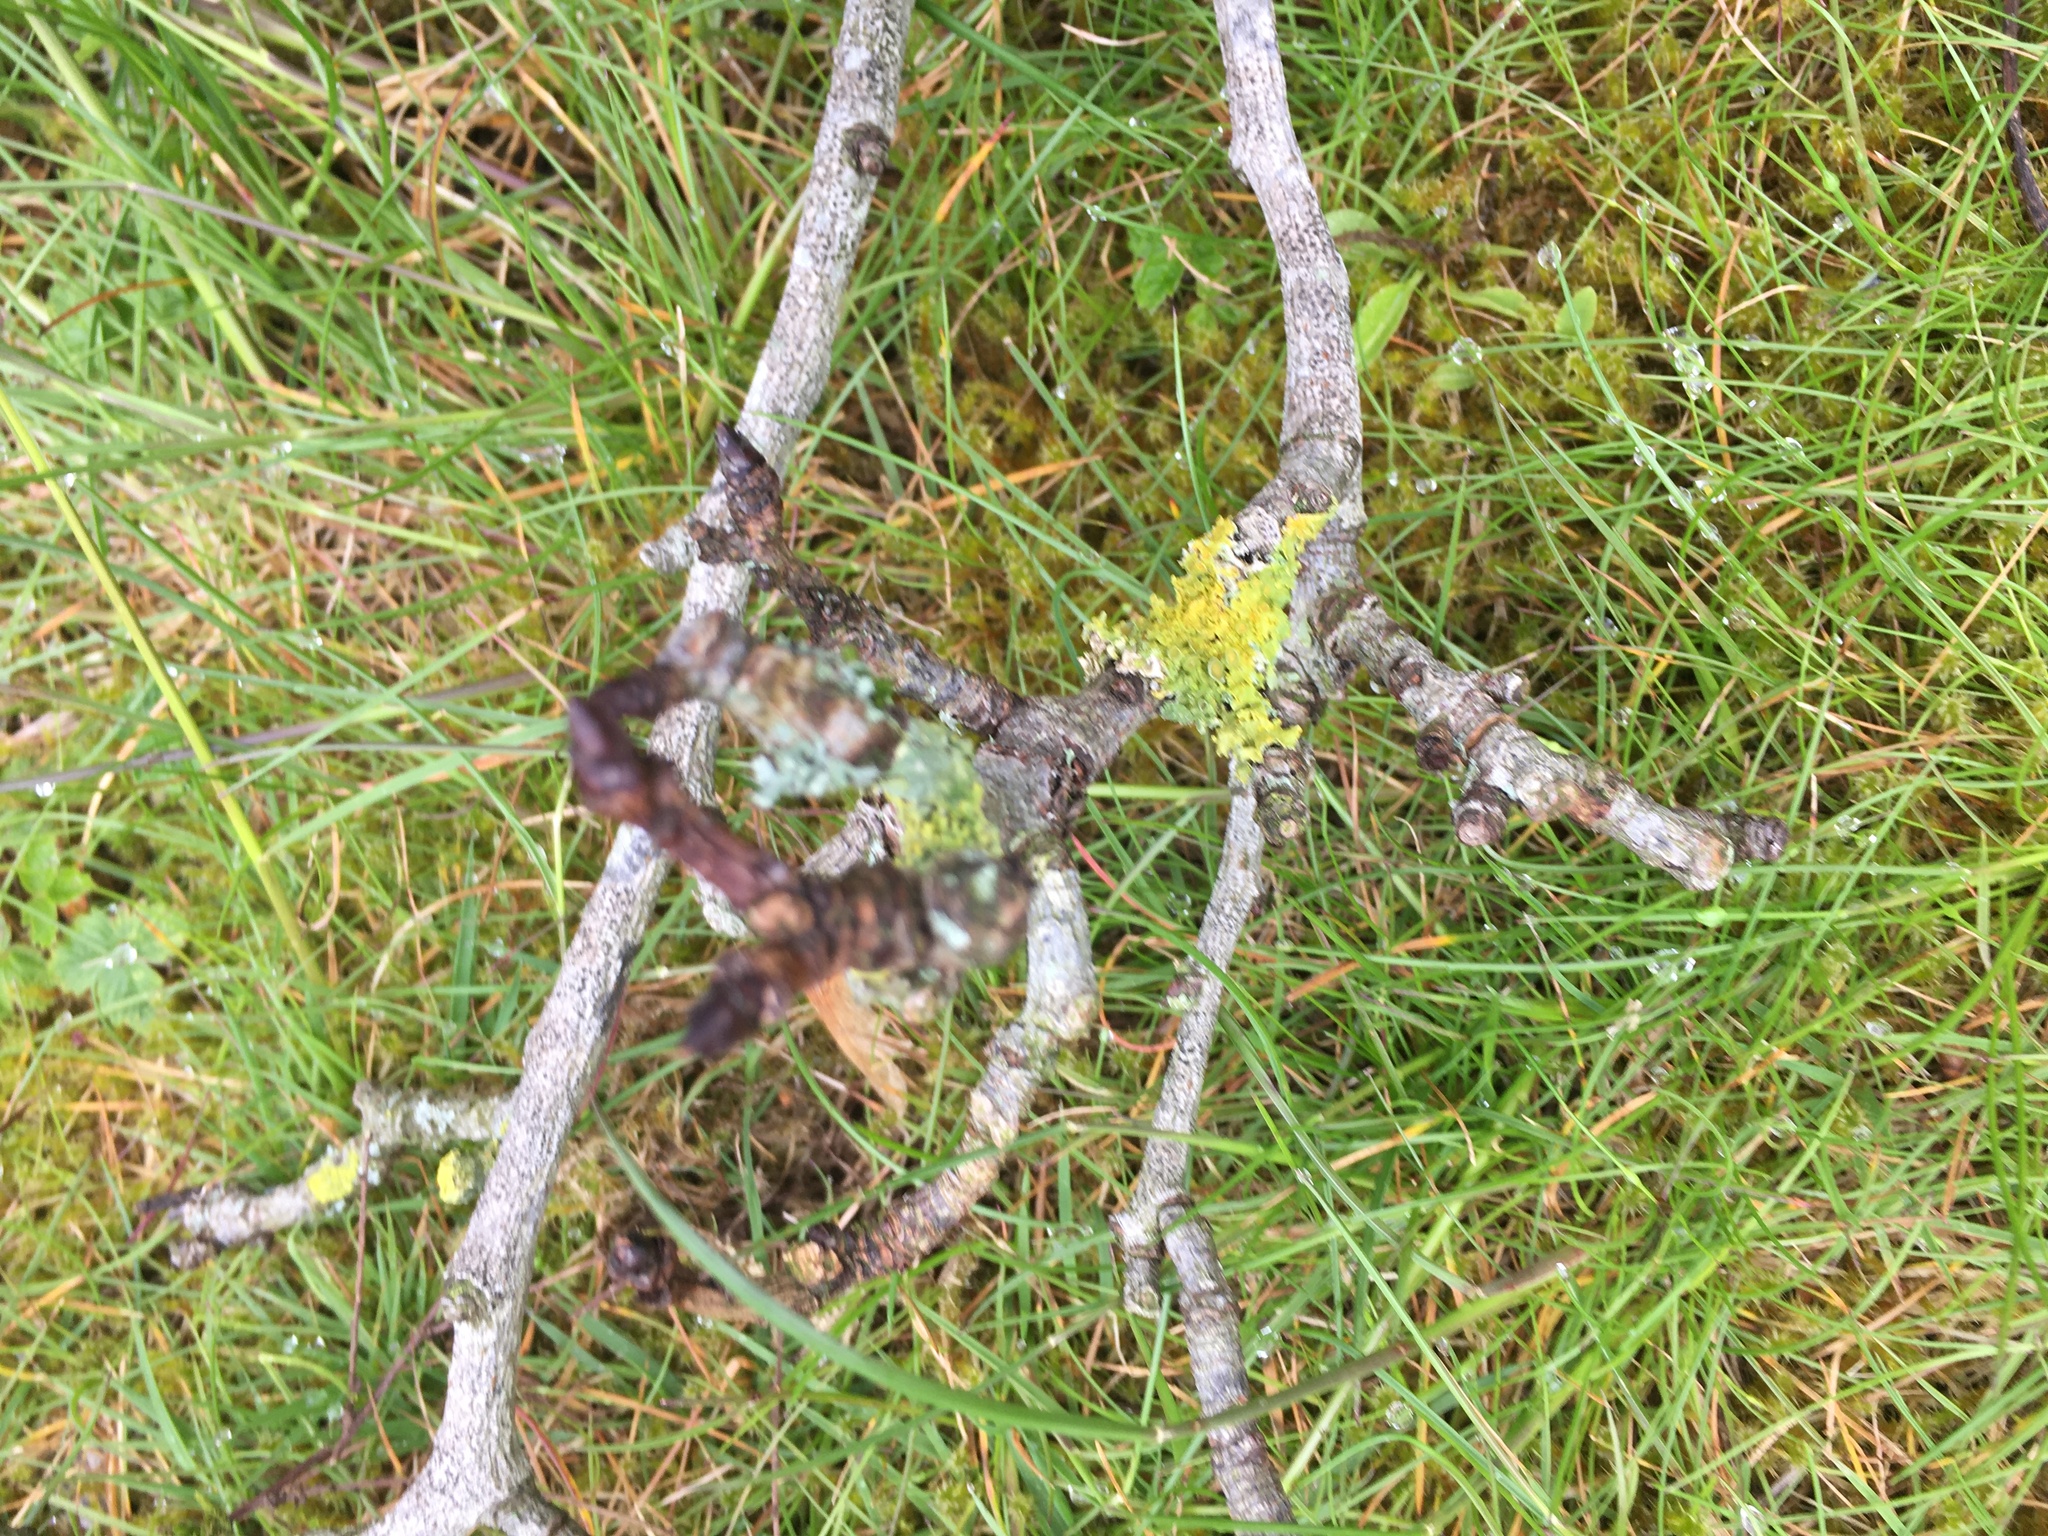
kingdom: Fungi
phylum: Ascomycota
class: Lecanoromycetes
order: Teloschistales
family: Teloschistaceae
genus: Xanthoria
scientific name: Xanthoria parietina
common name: Common orange lichen
